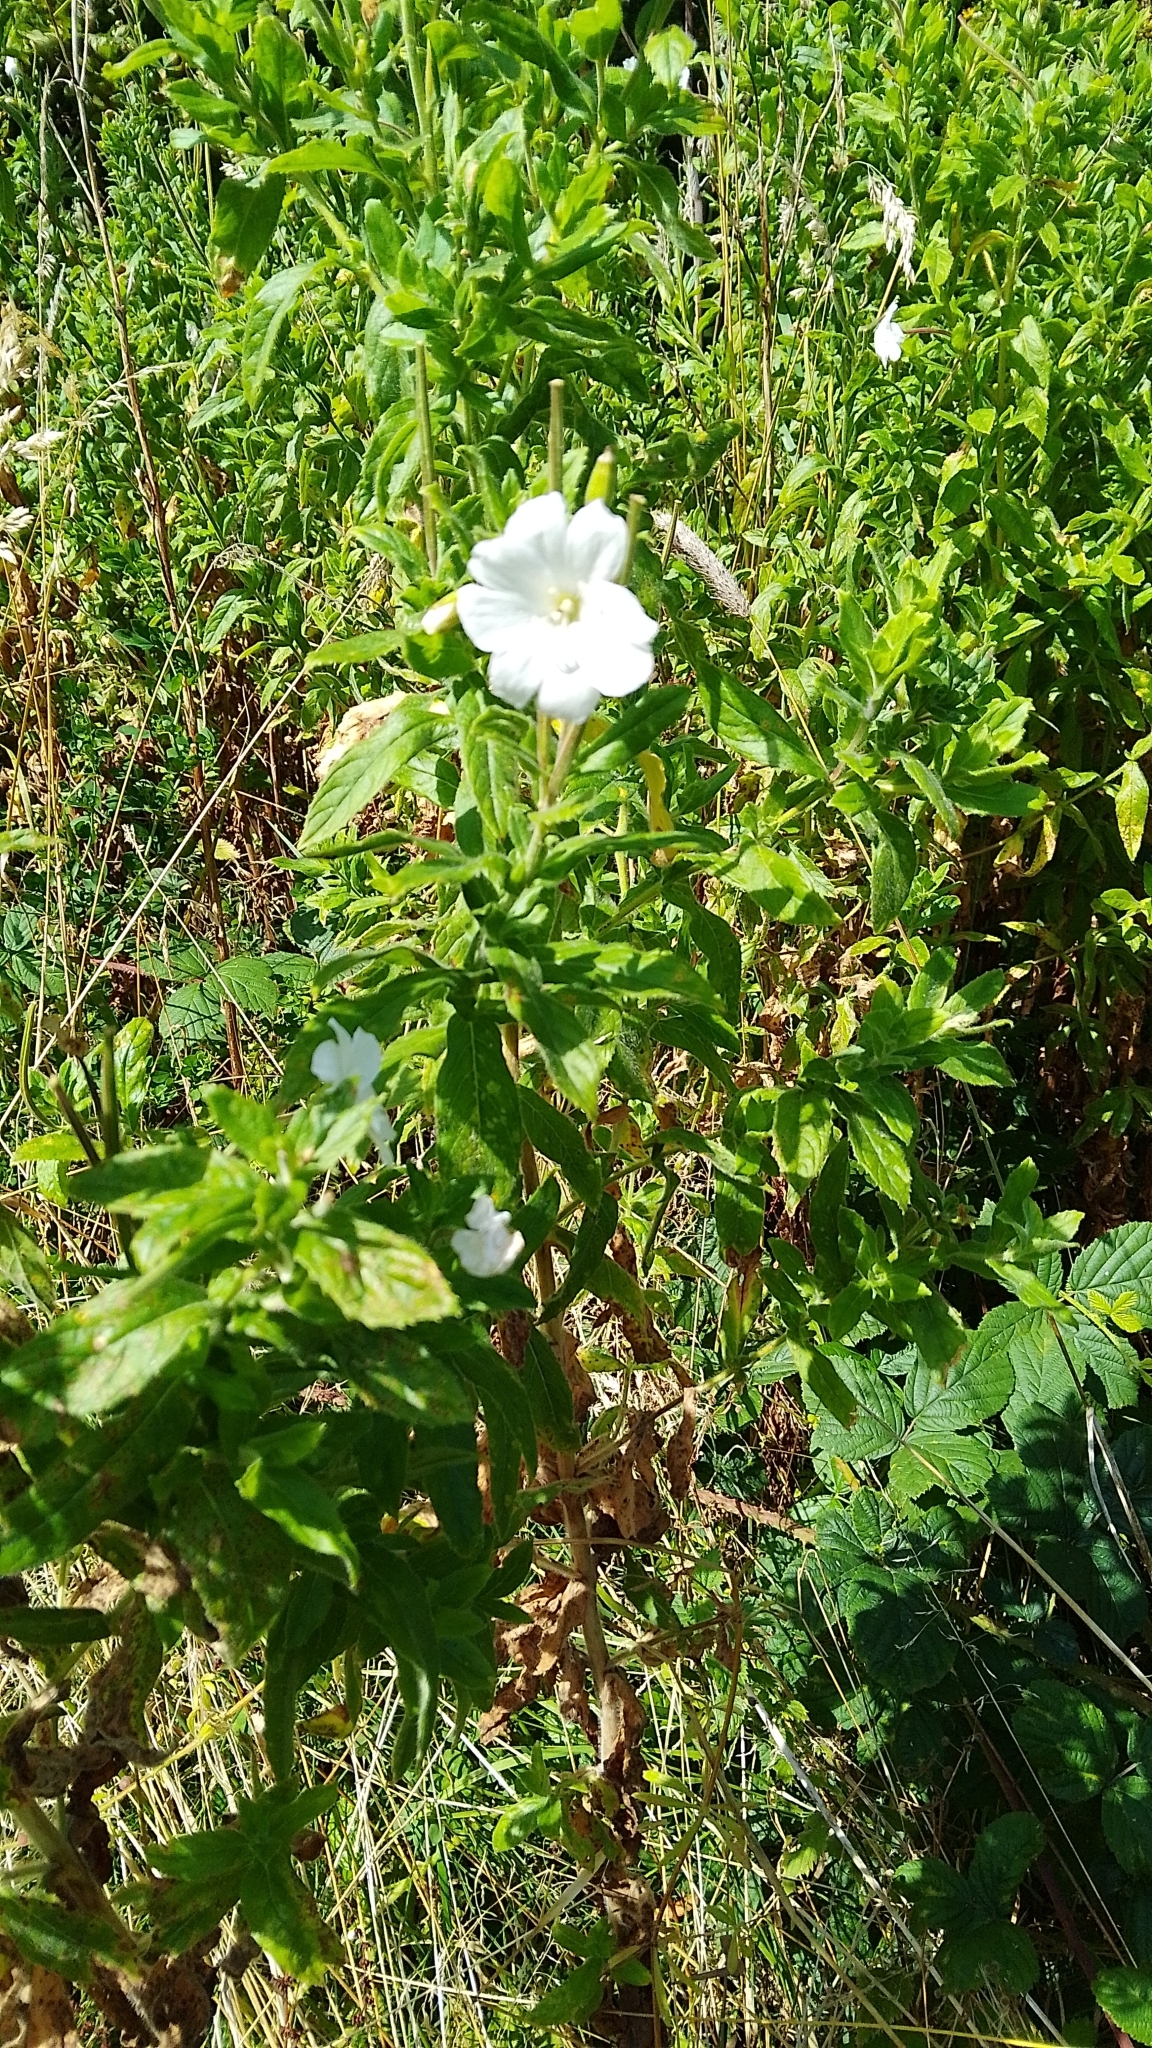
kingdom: Plantae
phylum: Tracheophyta
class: Magnoliopsida
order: Myrtales
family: Onagraceae
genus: Epilobium
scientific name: Epilobium hirsutum
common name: Great willowherb
